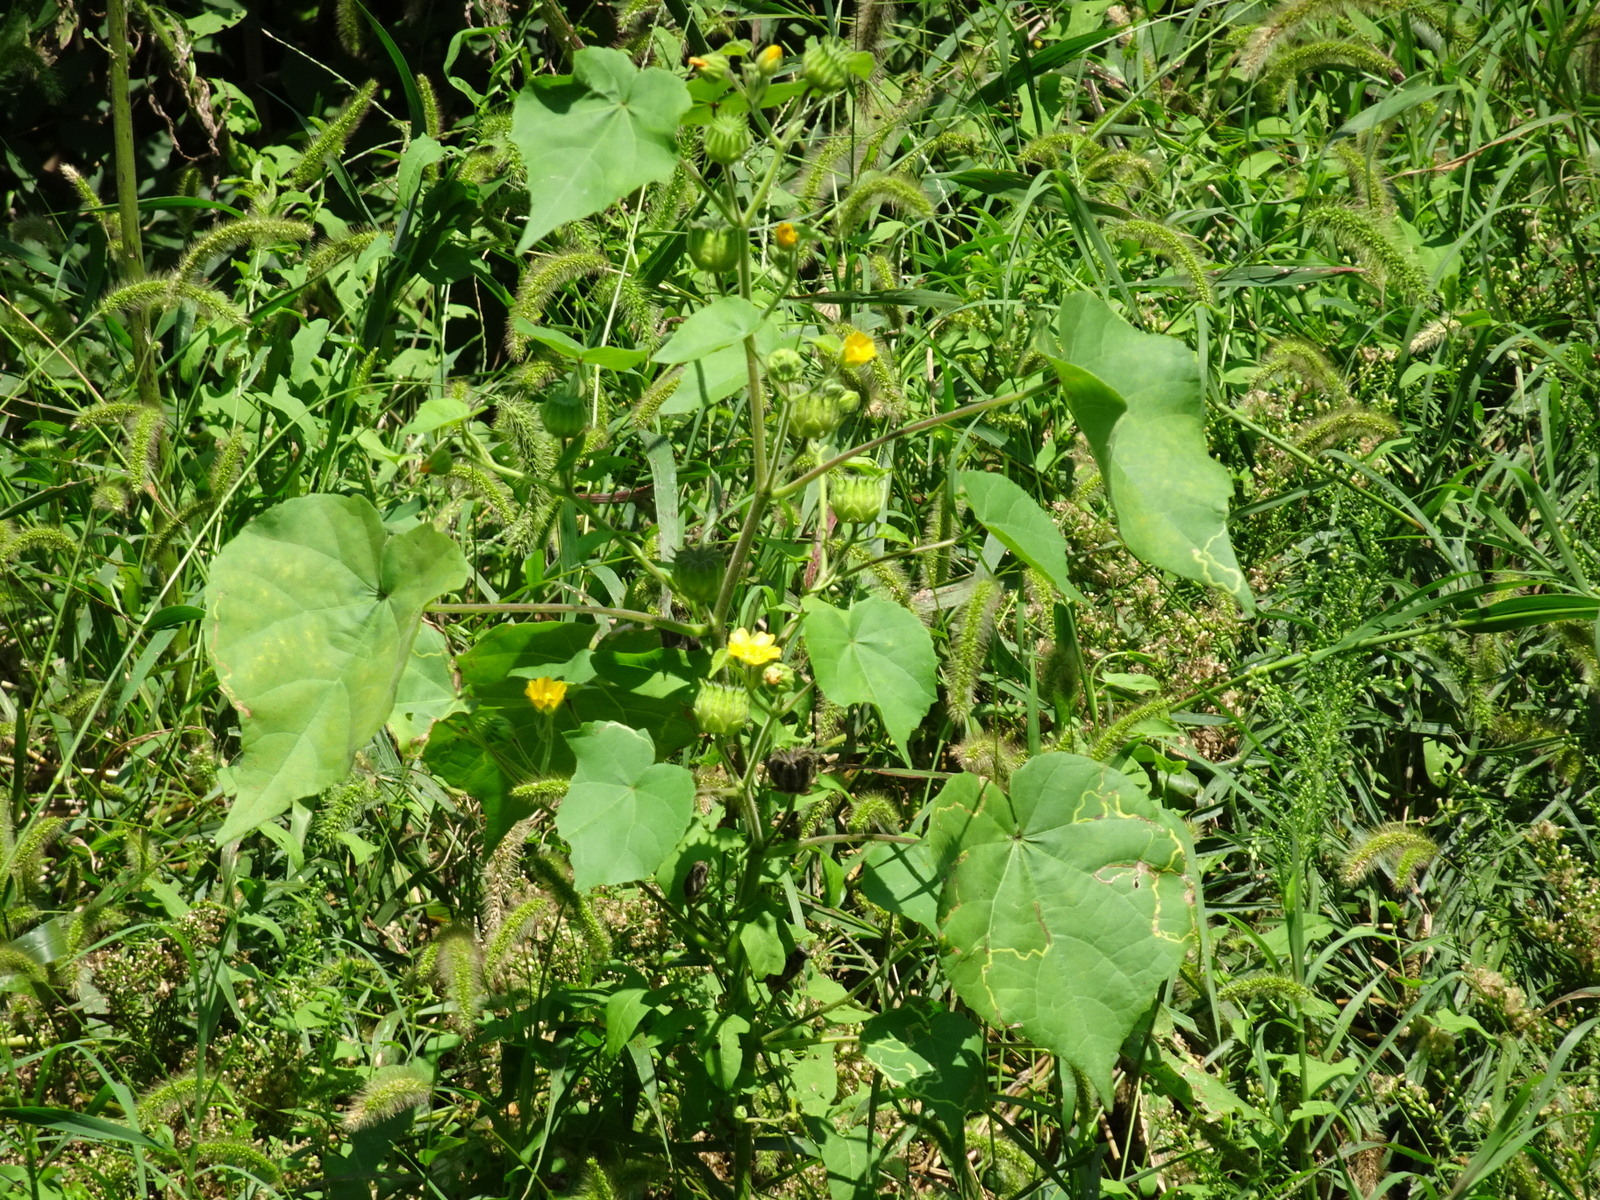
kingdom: Plantae
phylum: Tracheophyta
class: Magnoliopsida
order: Malvales
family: Malvaceae
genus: Abutilon
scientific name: Abutilon theophrasti
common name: Velvetleaf
